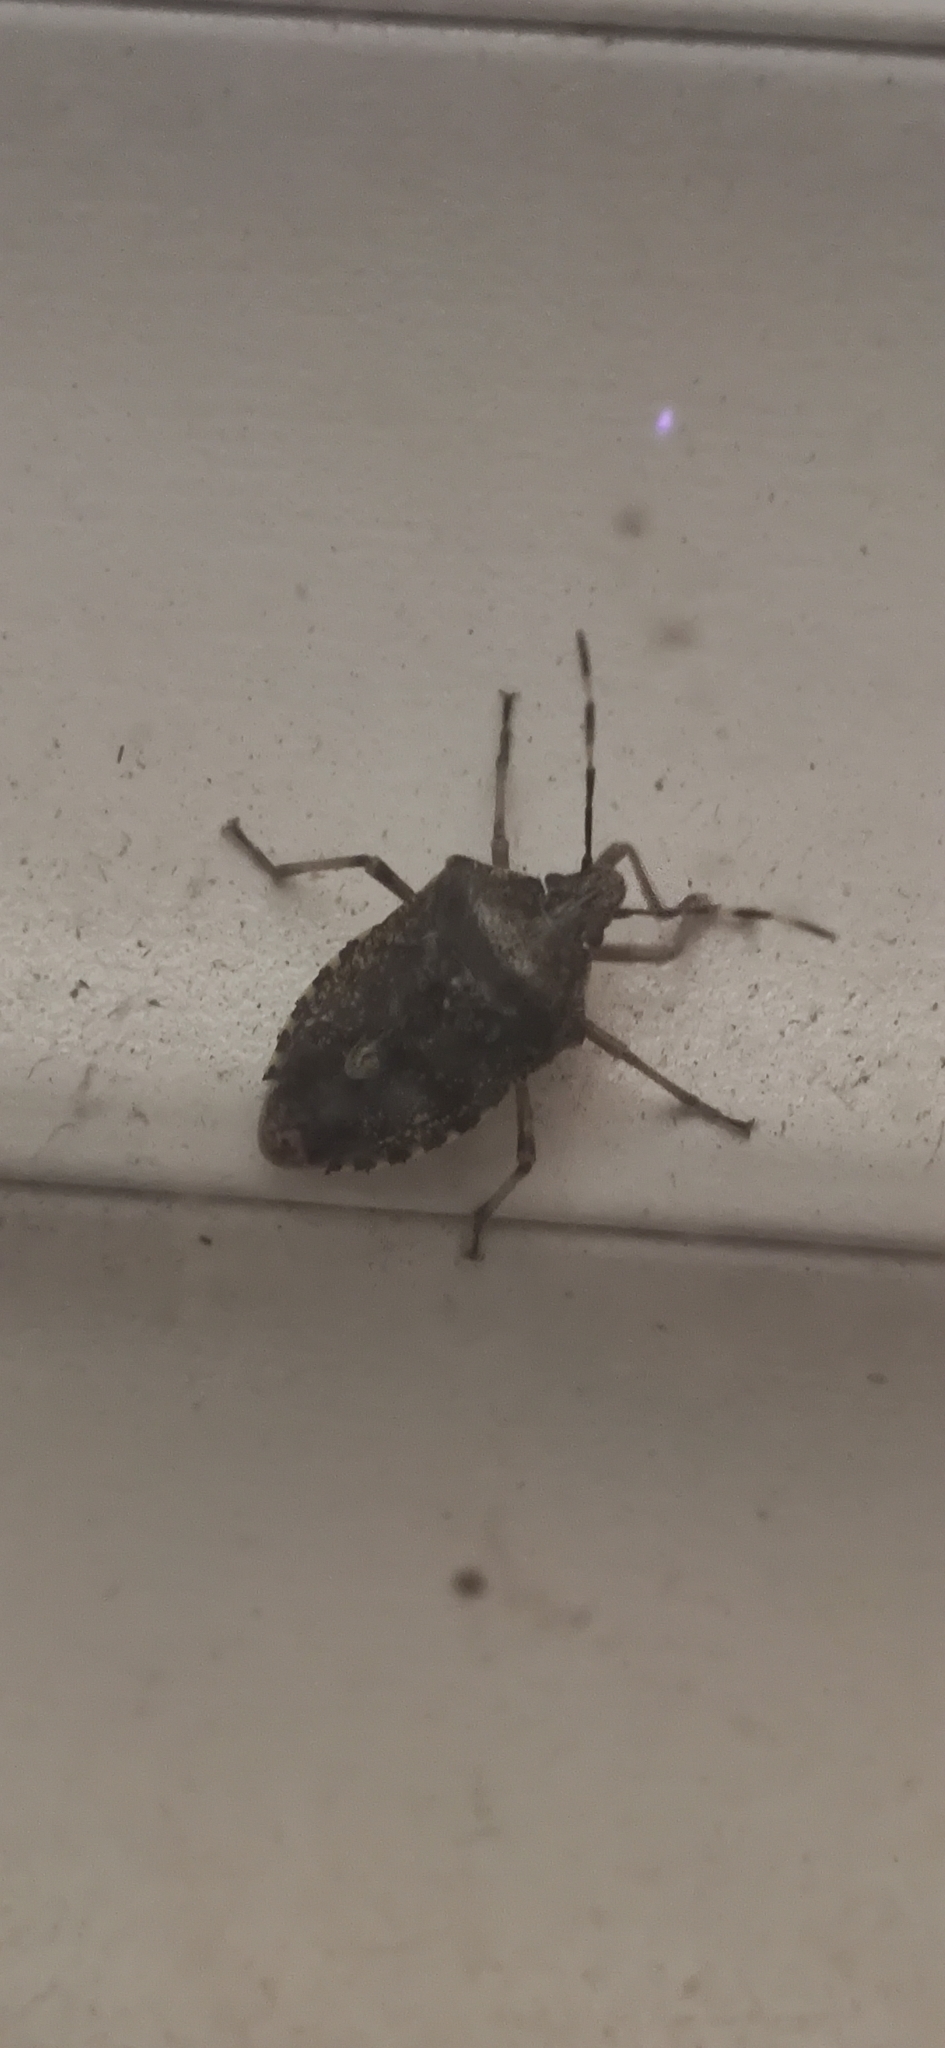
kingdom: Animalia
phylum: Arthropoda
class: Insecta
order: Hemiptera
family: Pentatomidae
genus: Halyomorpha
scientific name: Halyomorpha halys
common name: Brown marmorated stink bug
